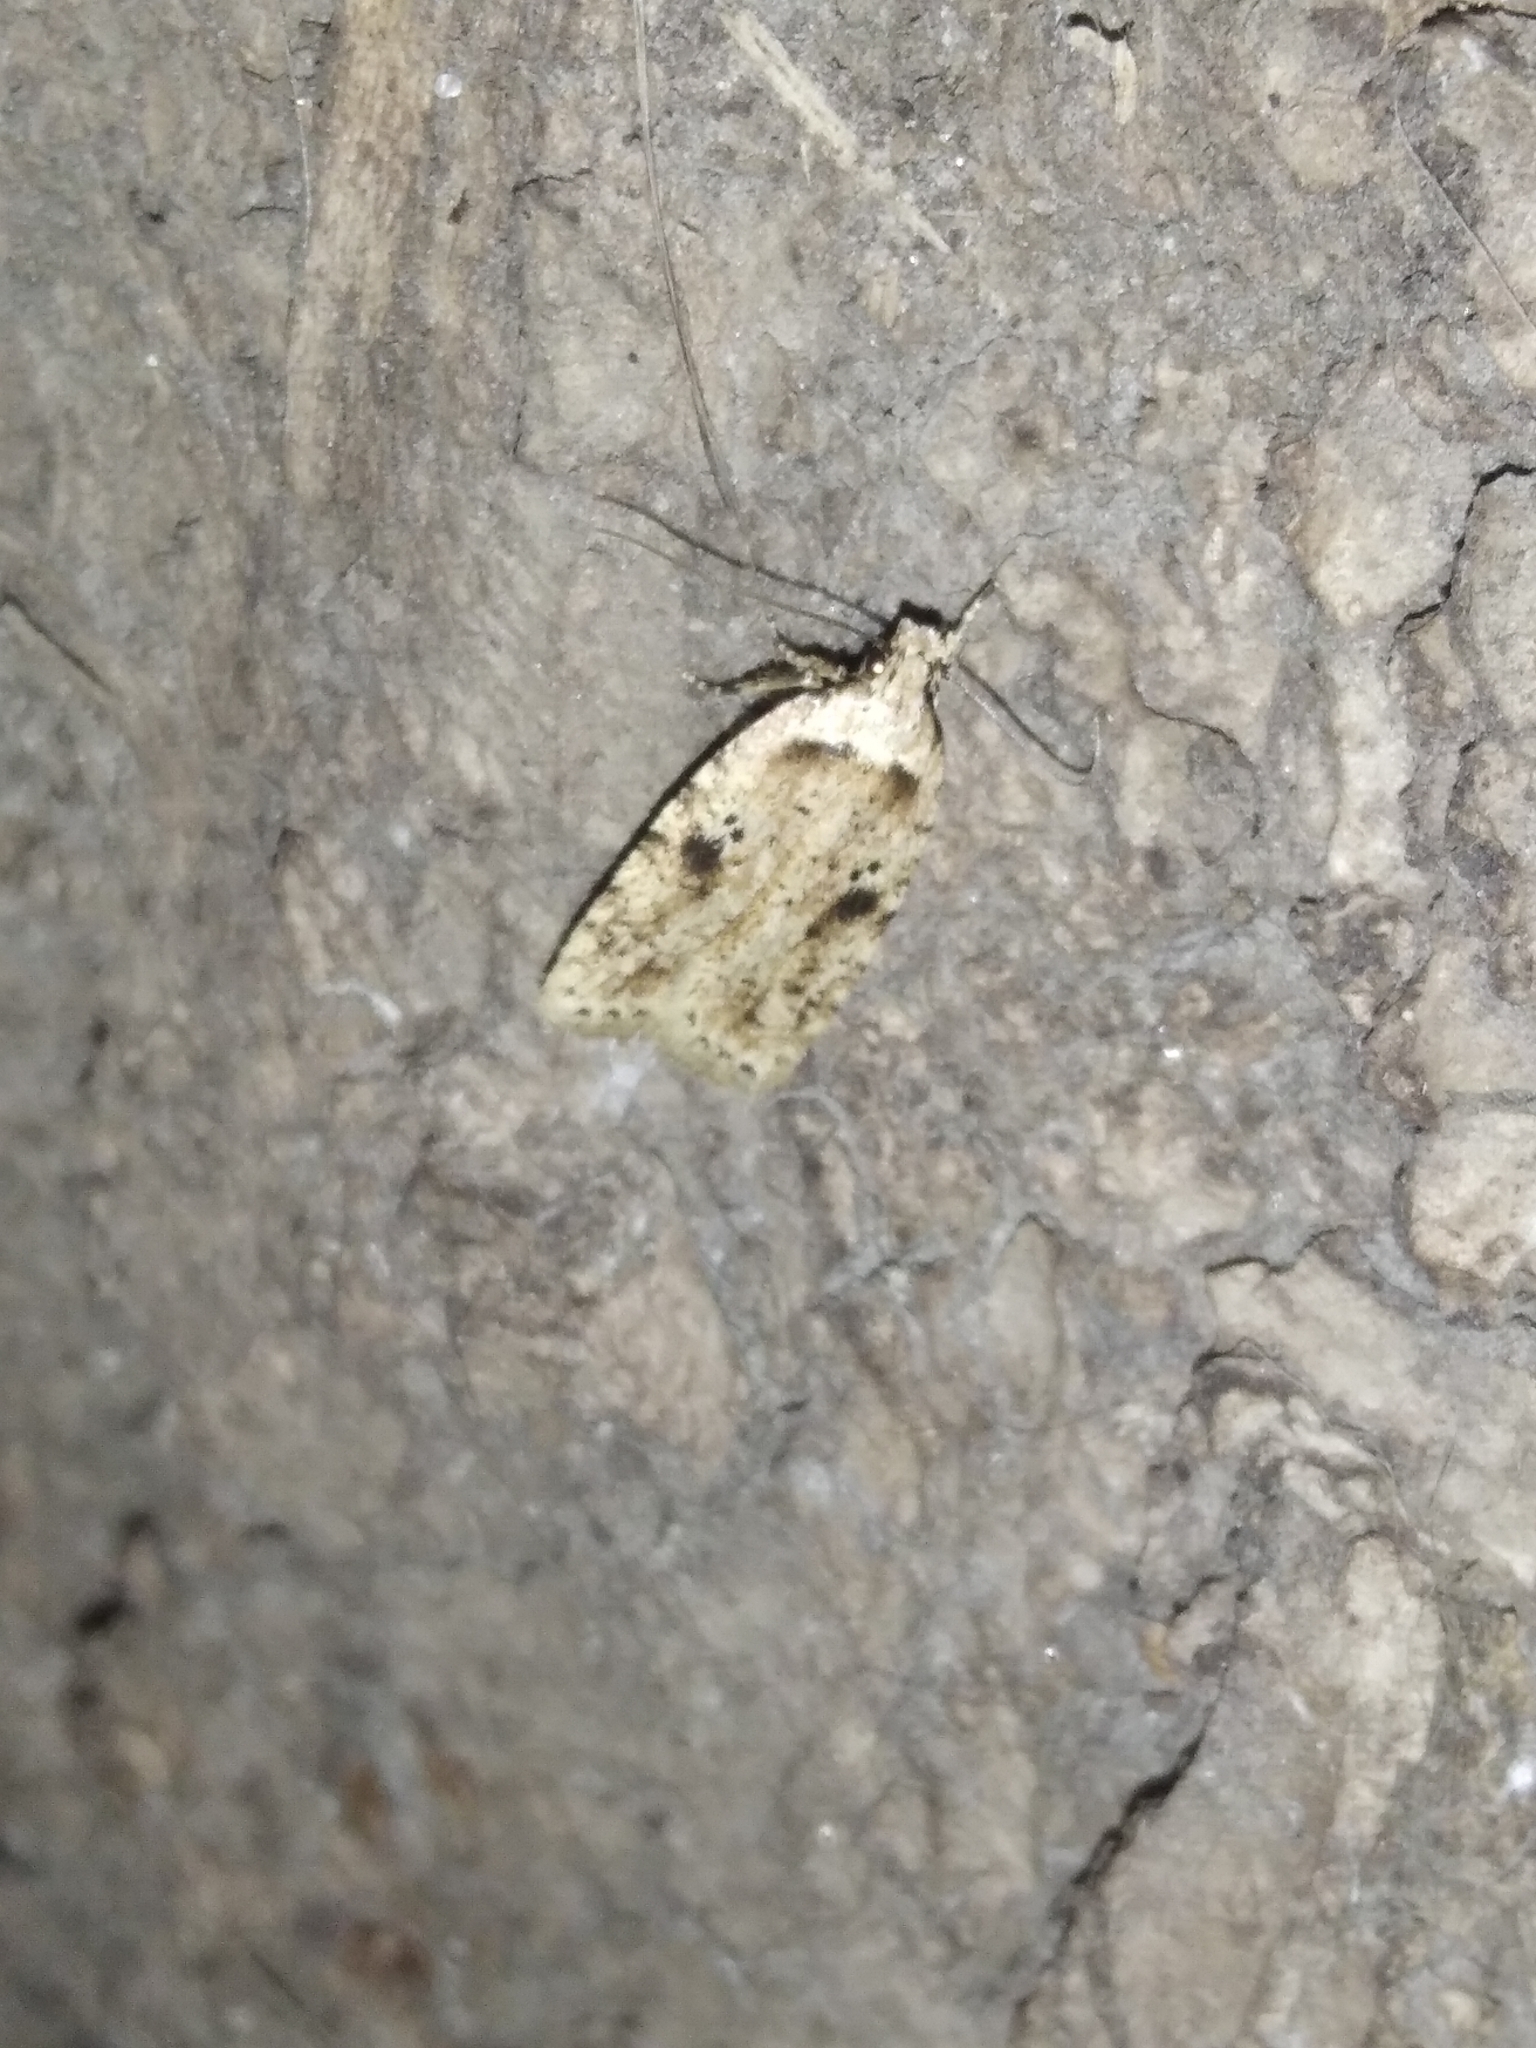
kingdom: Animalia
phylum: Arthropoda
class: Insecta
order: Lepidoptera
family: Depressariidae
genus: Agonopterix
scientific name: Agonopterix arenella
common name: Brindled flat-body
